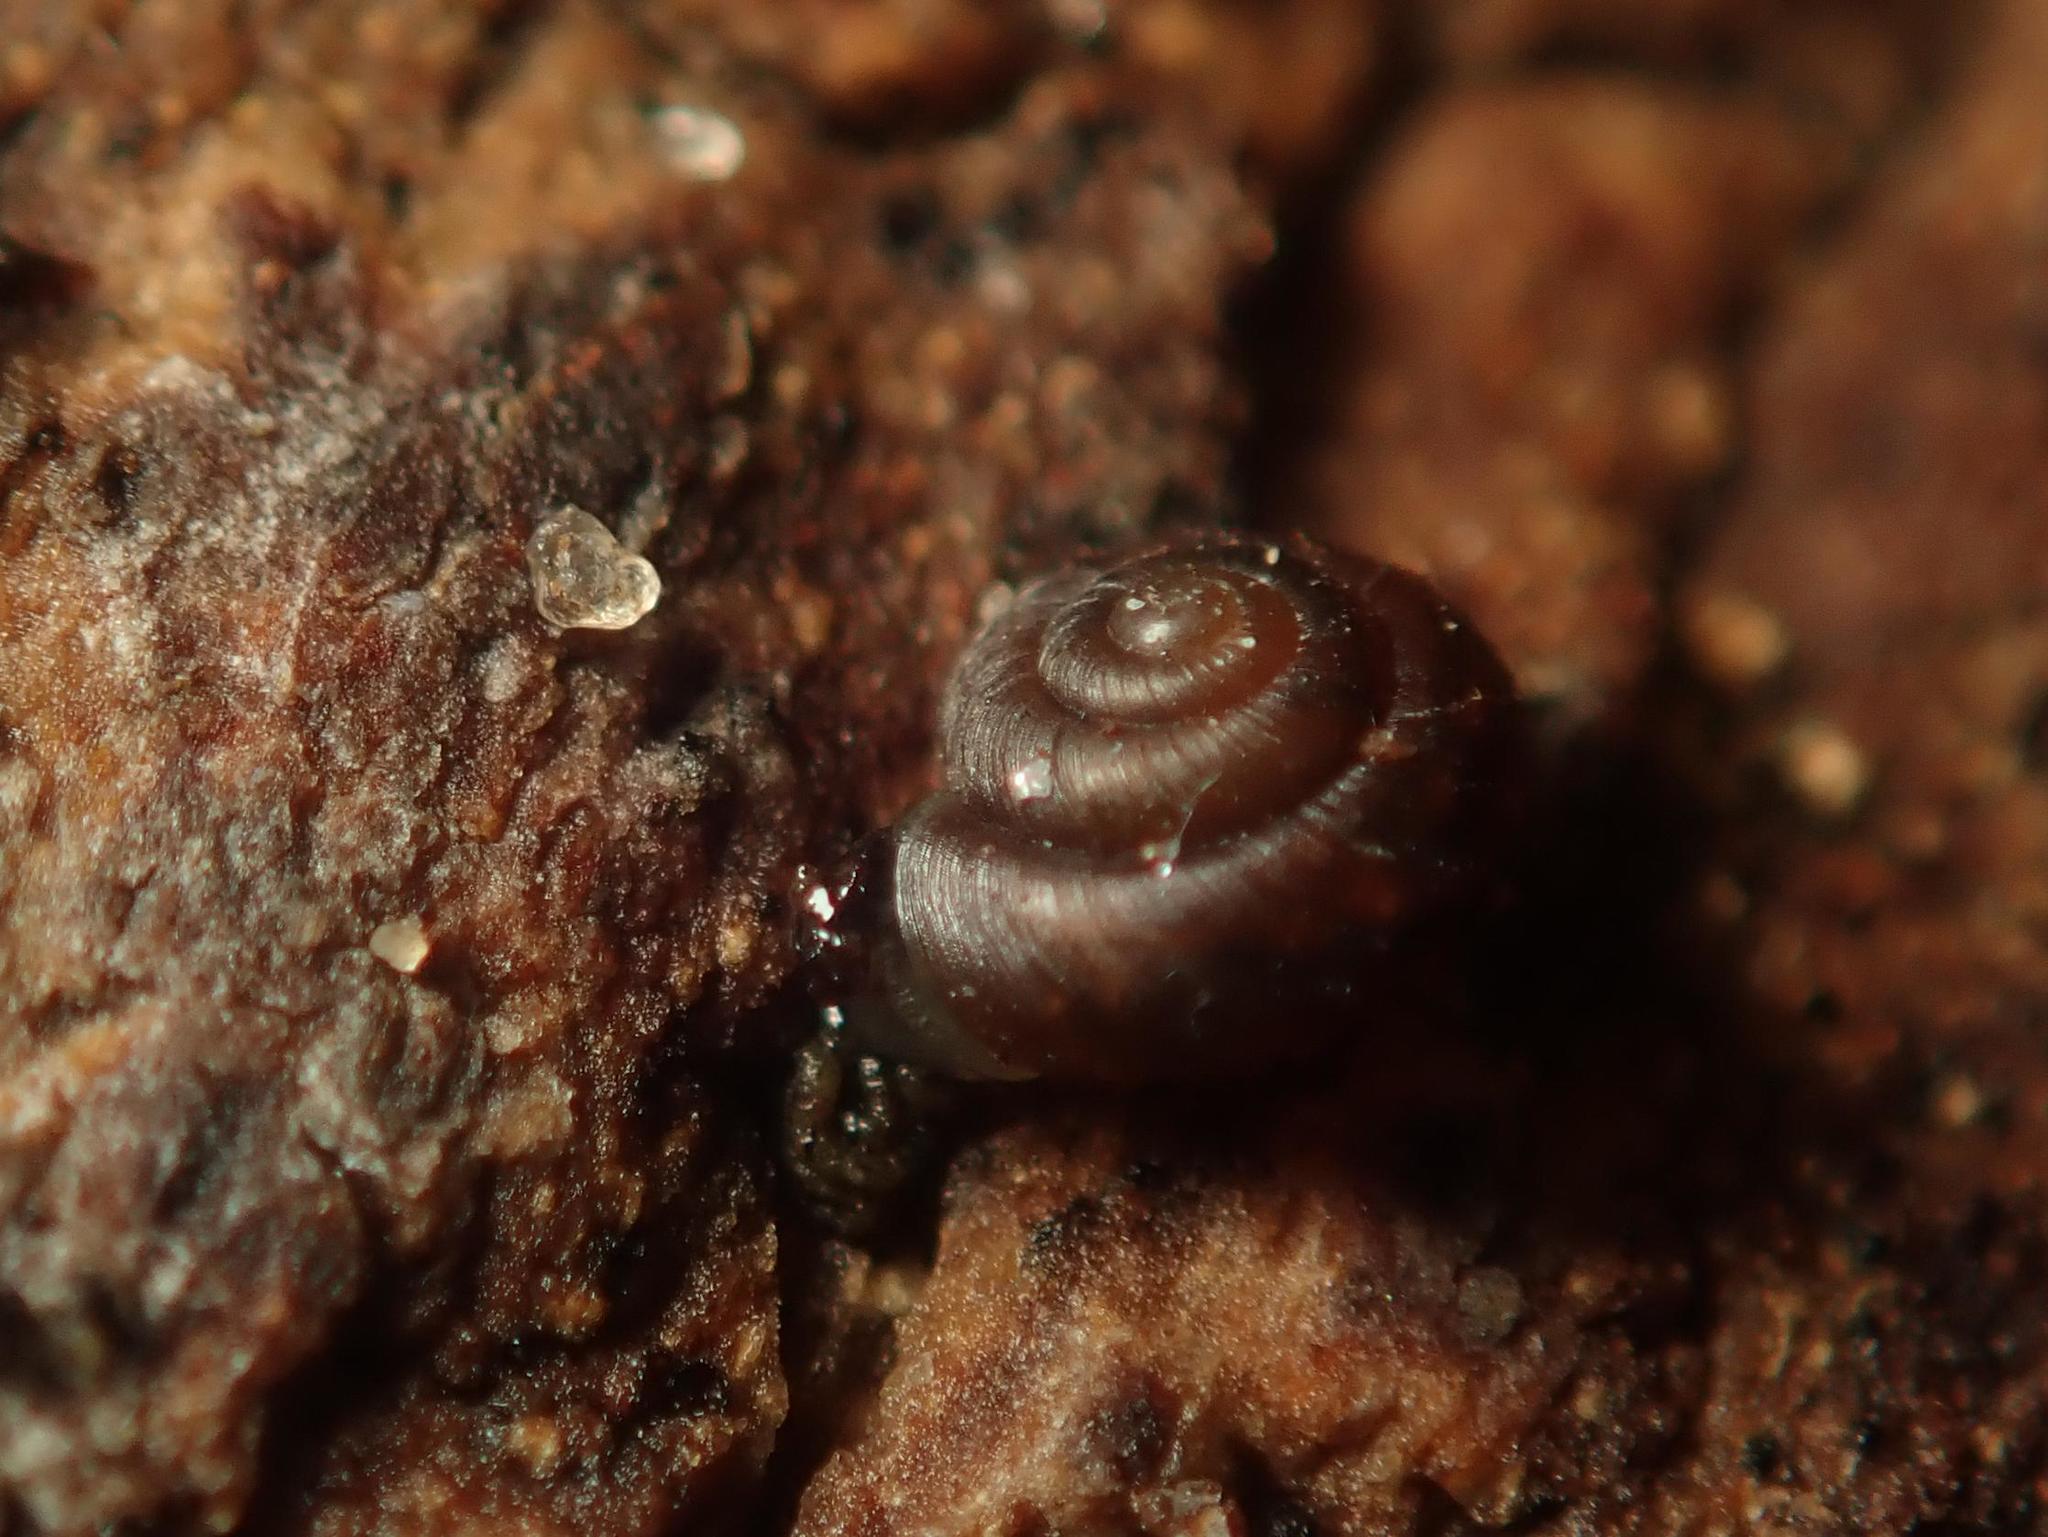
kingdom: Animalia
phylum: Mollusca
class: Gastropoda
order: Stylommatophora
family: Punctidae
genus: Paralaoma
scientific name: Paralaoma servilis
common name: Pinhead spot
